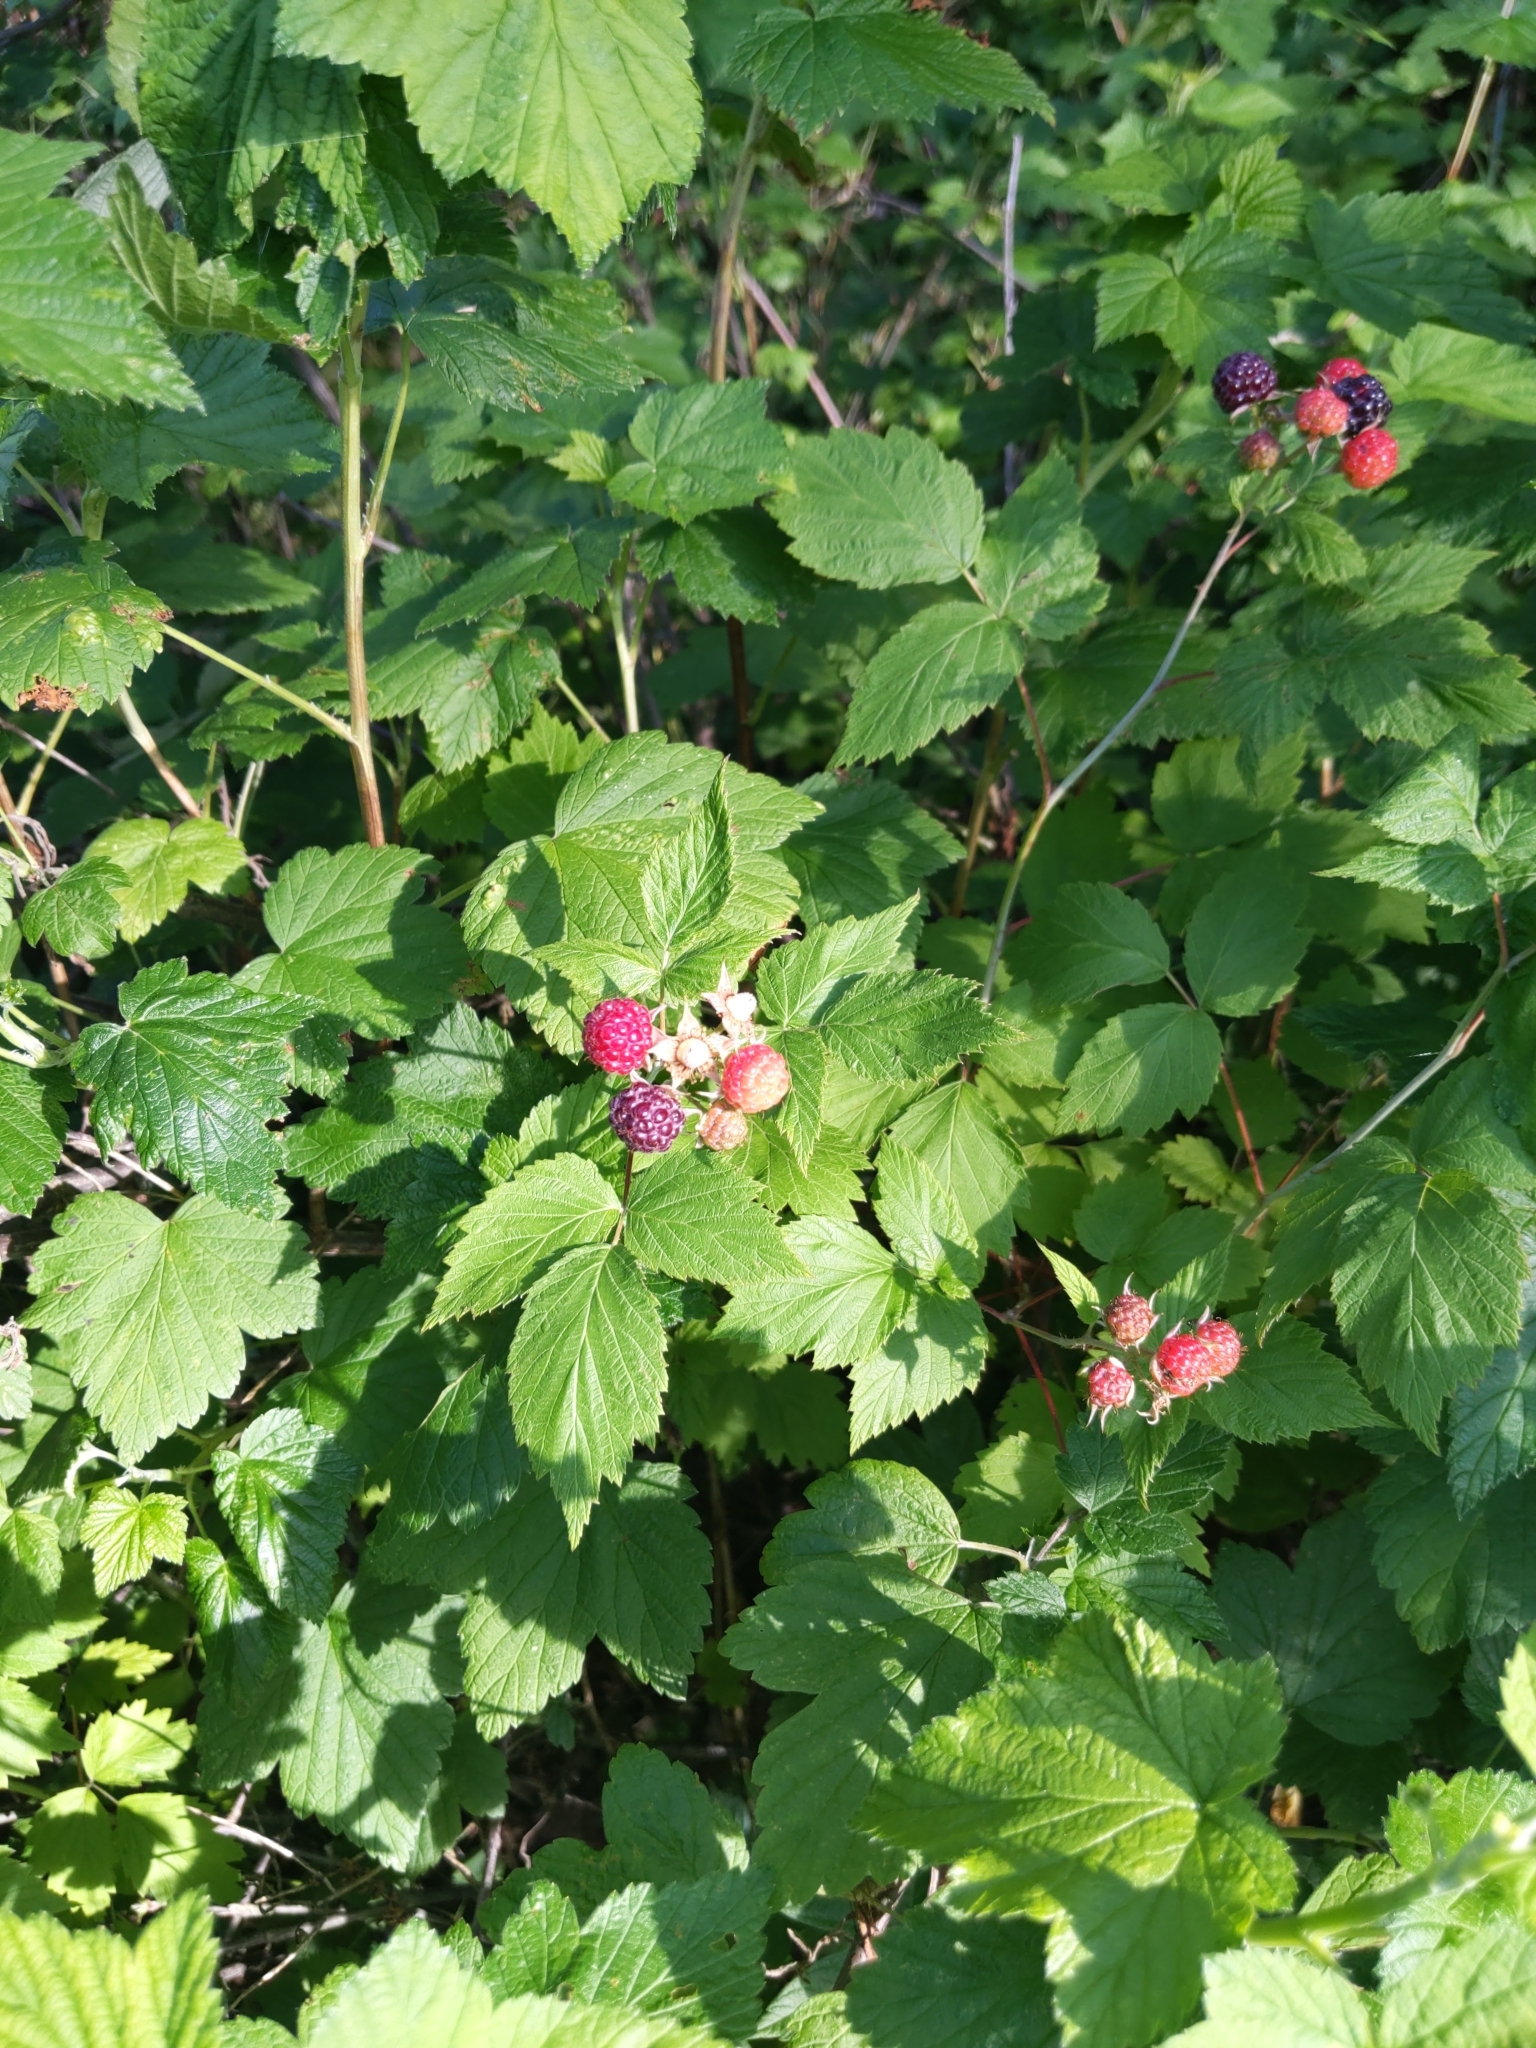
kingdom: Plantae
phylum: Tracheophyta
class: Magnoliopsida
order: Rosales
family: Rosaceae
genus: Rubus
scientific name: Rubus occidentalis
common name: Black raspberry
